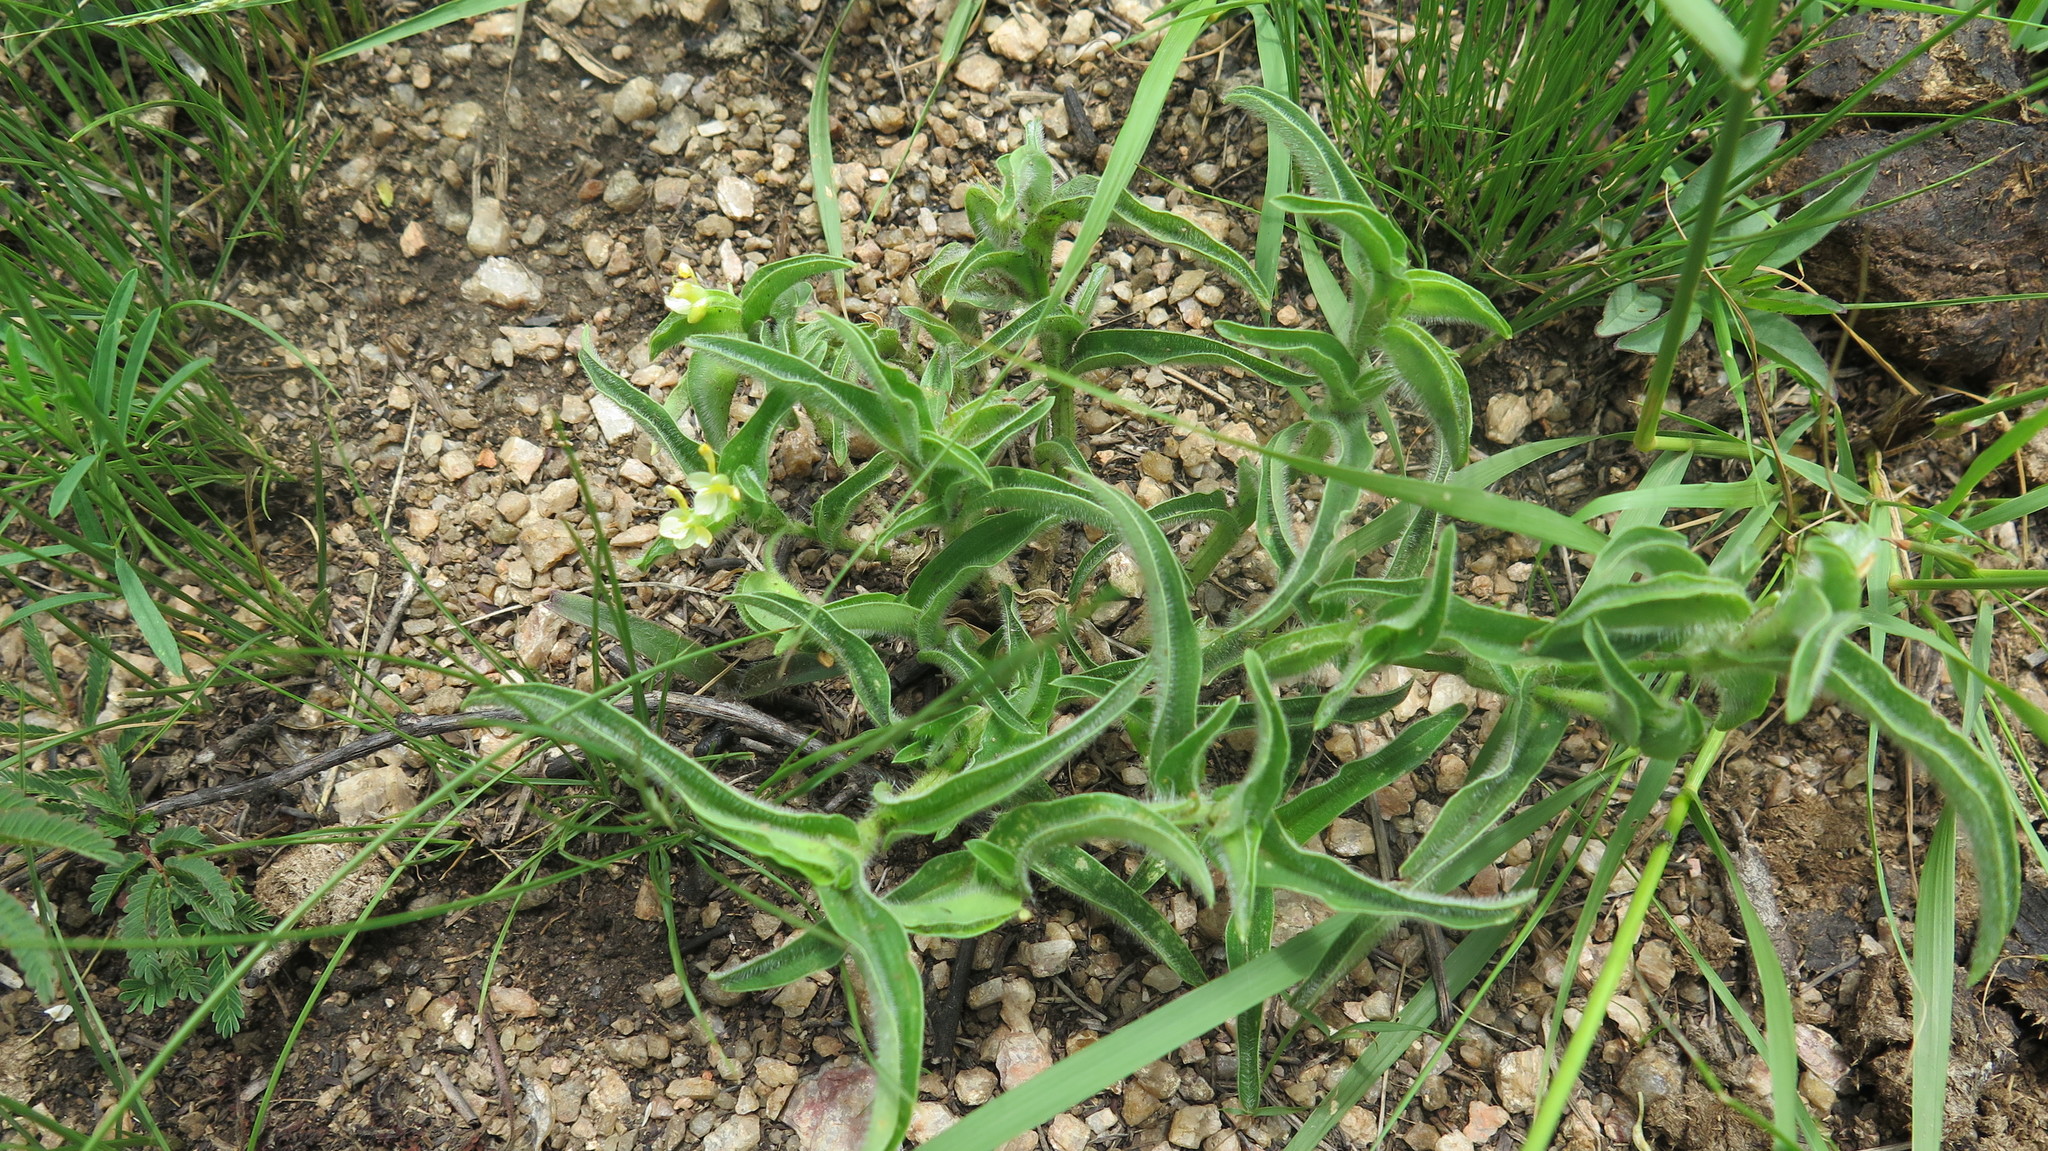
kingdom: Plantae
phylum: Tracheophyta
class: Liliopsida
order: Commelinales
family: Commelinaceae
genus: Commelina
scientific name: Commelina africana
